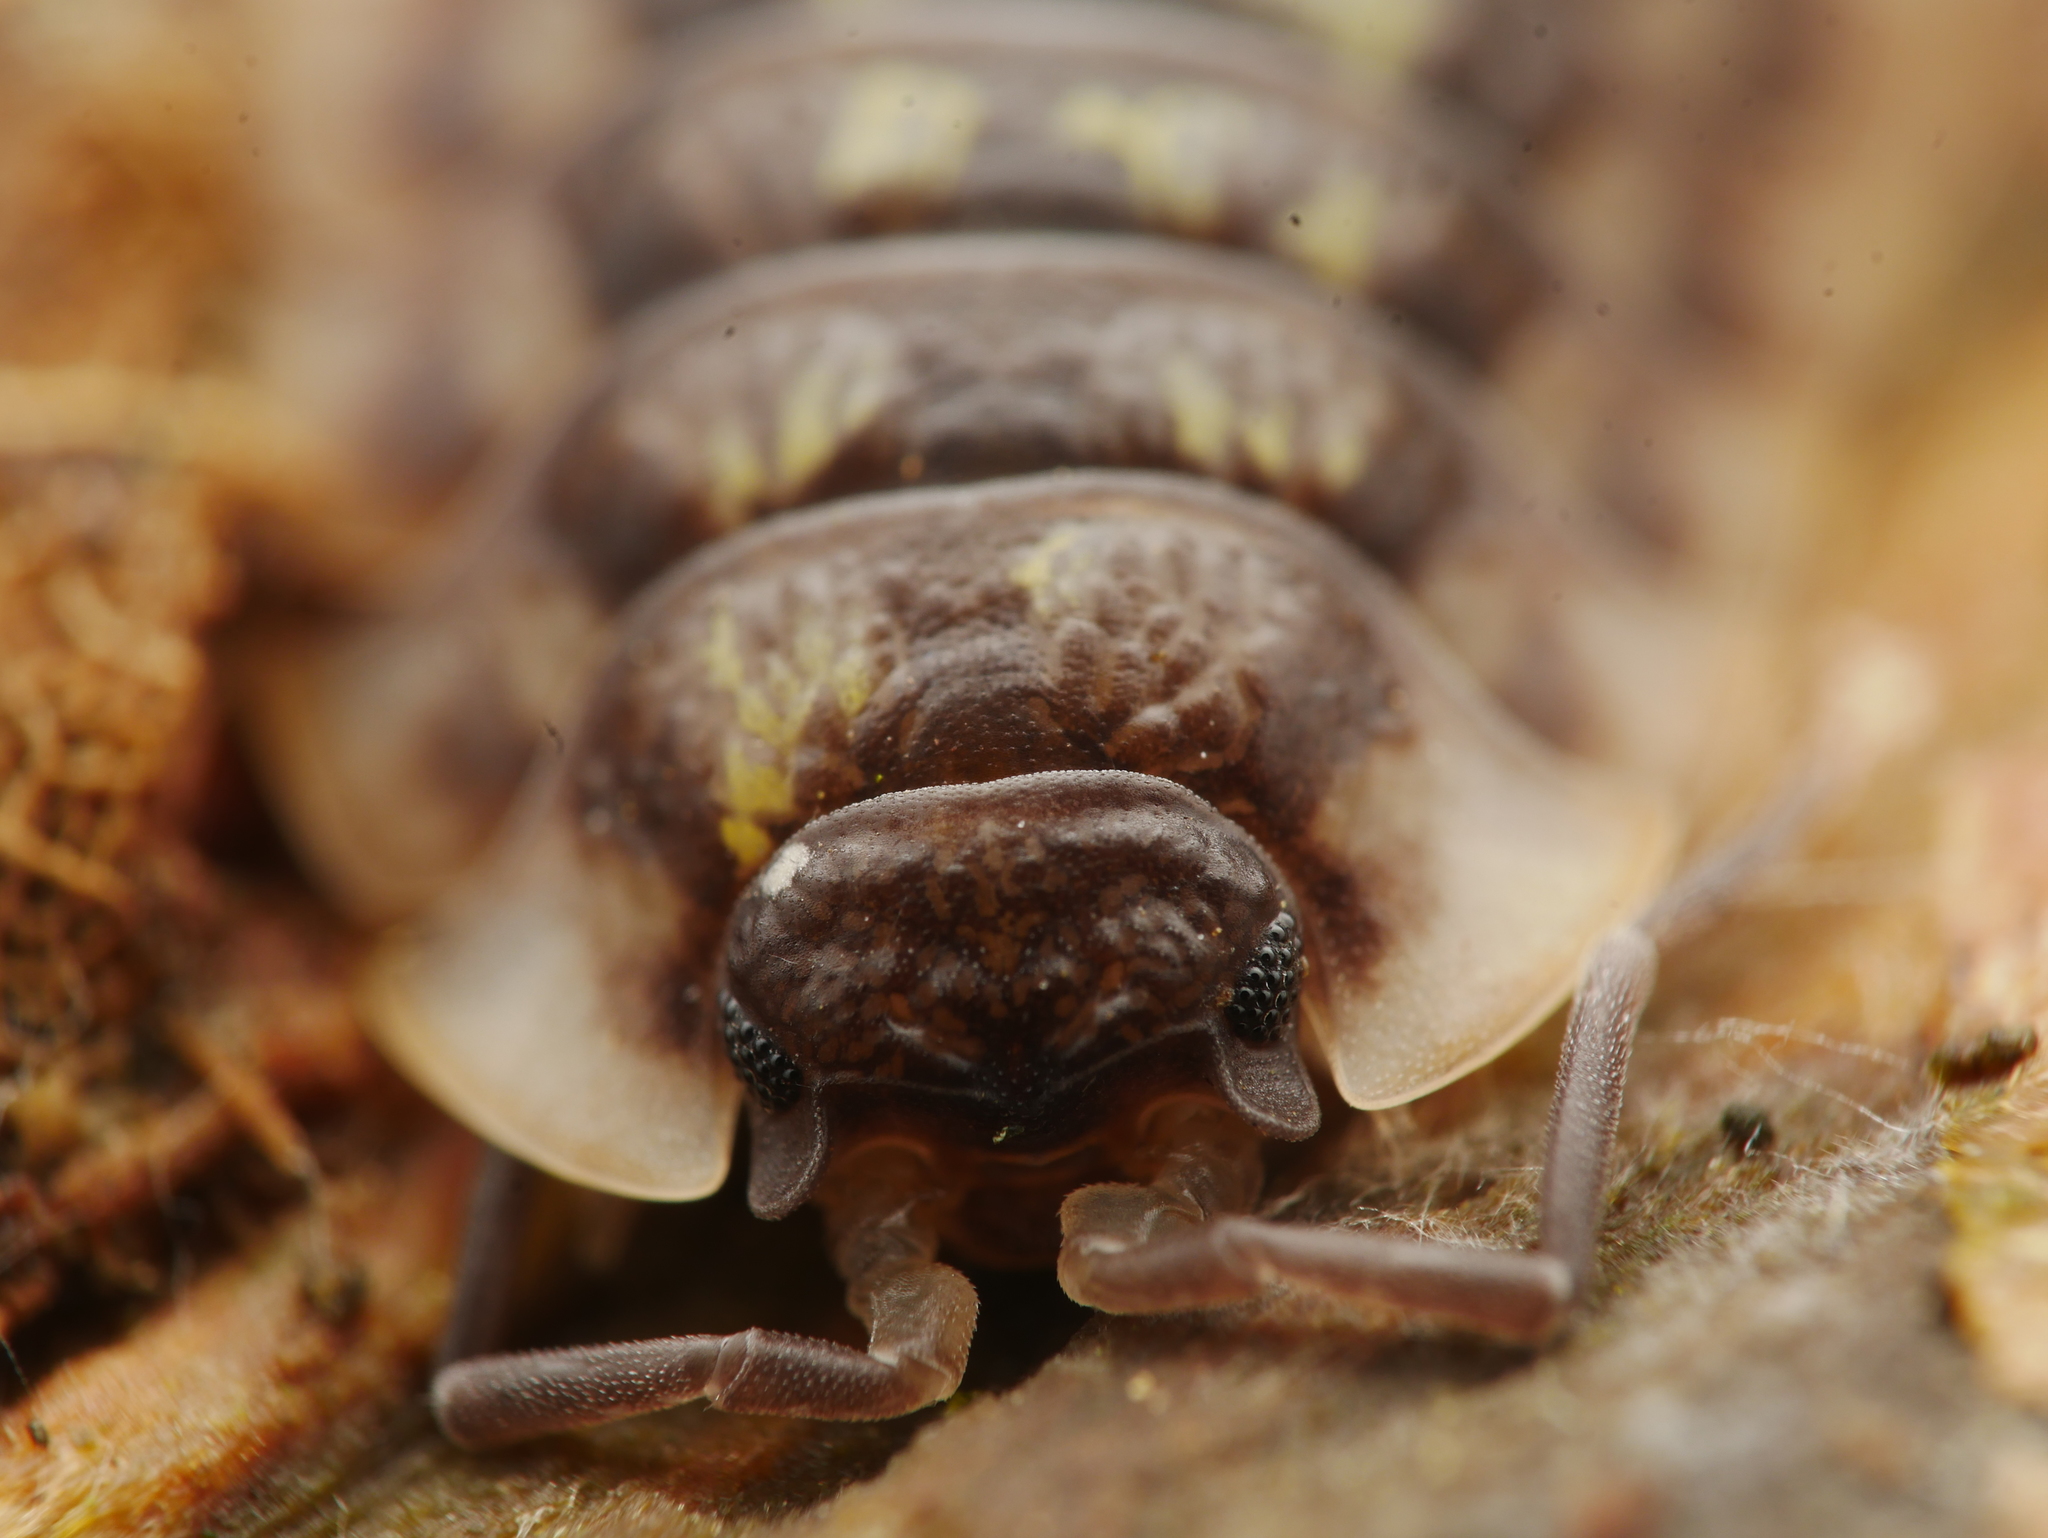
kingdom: Animalia
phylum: Arthropoda
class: Malacostraca
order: Isopoda
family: Oniscidae
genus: Oniscus
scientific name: Oniscus asellus
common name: Common shiny woodlouse
